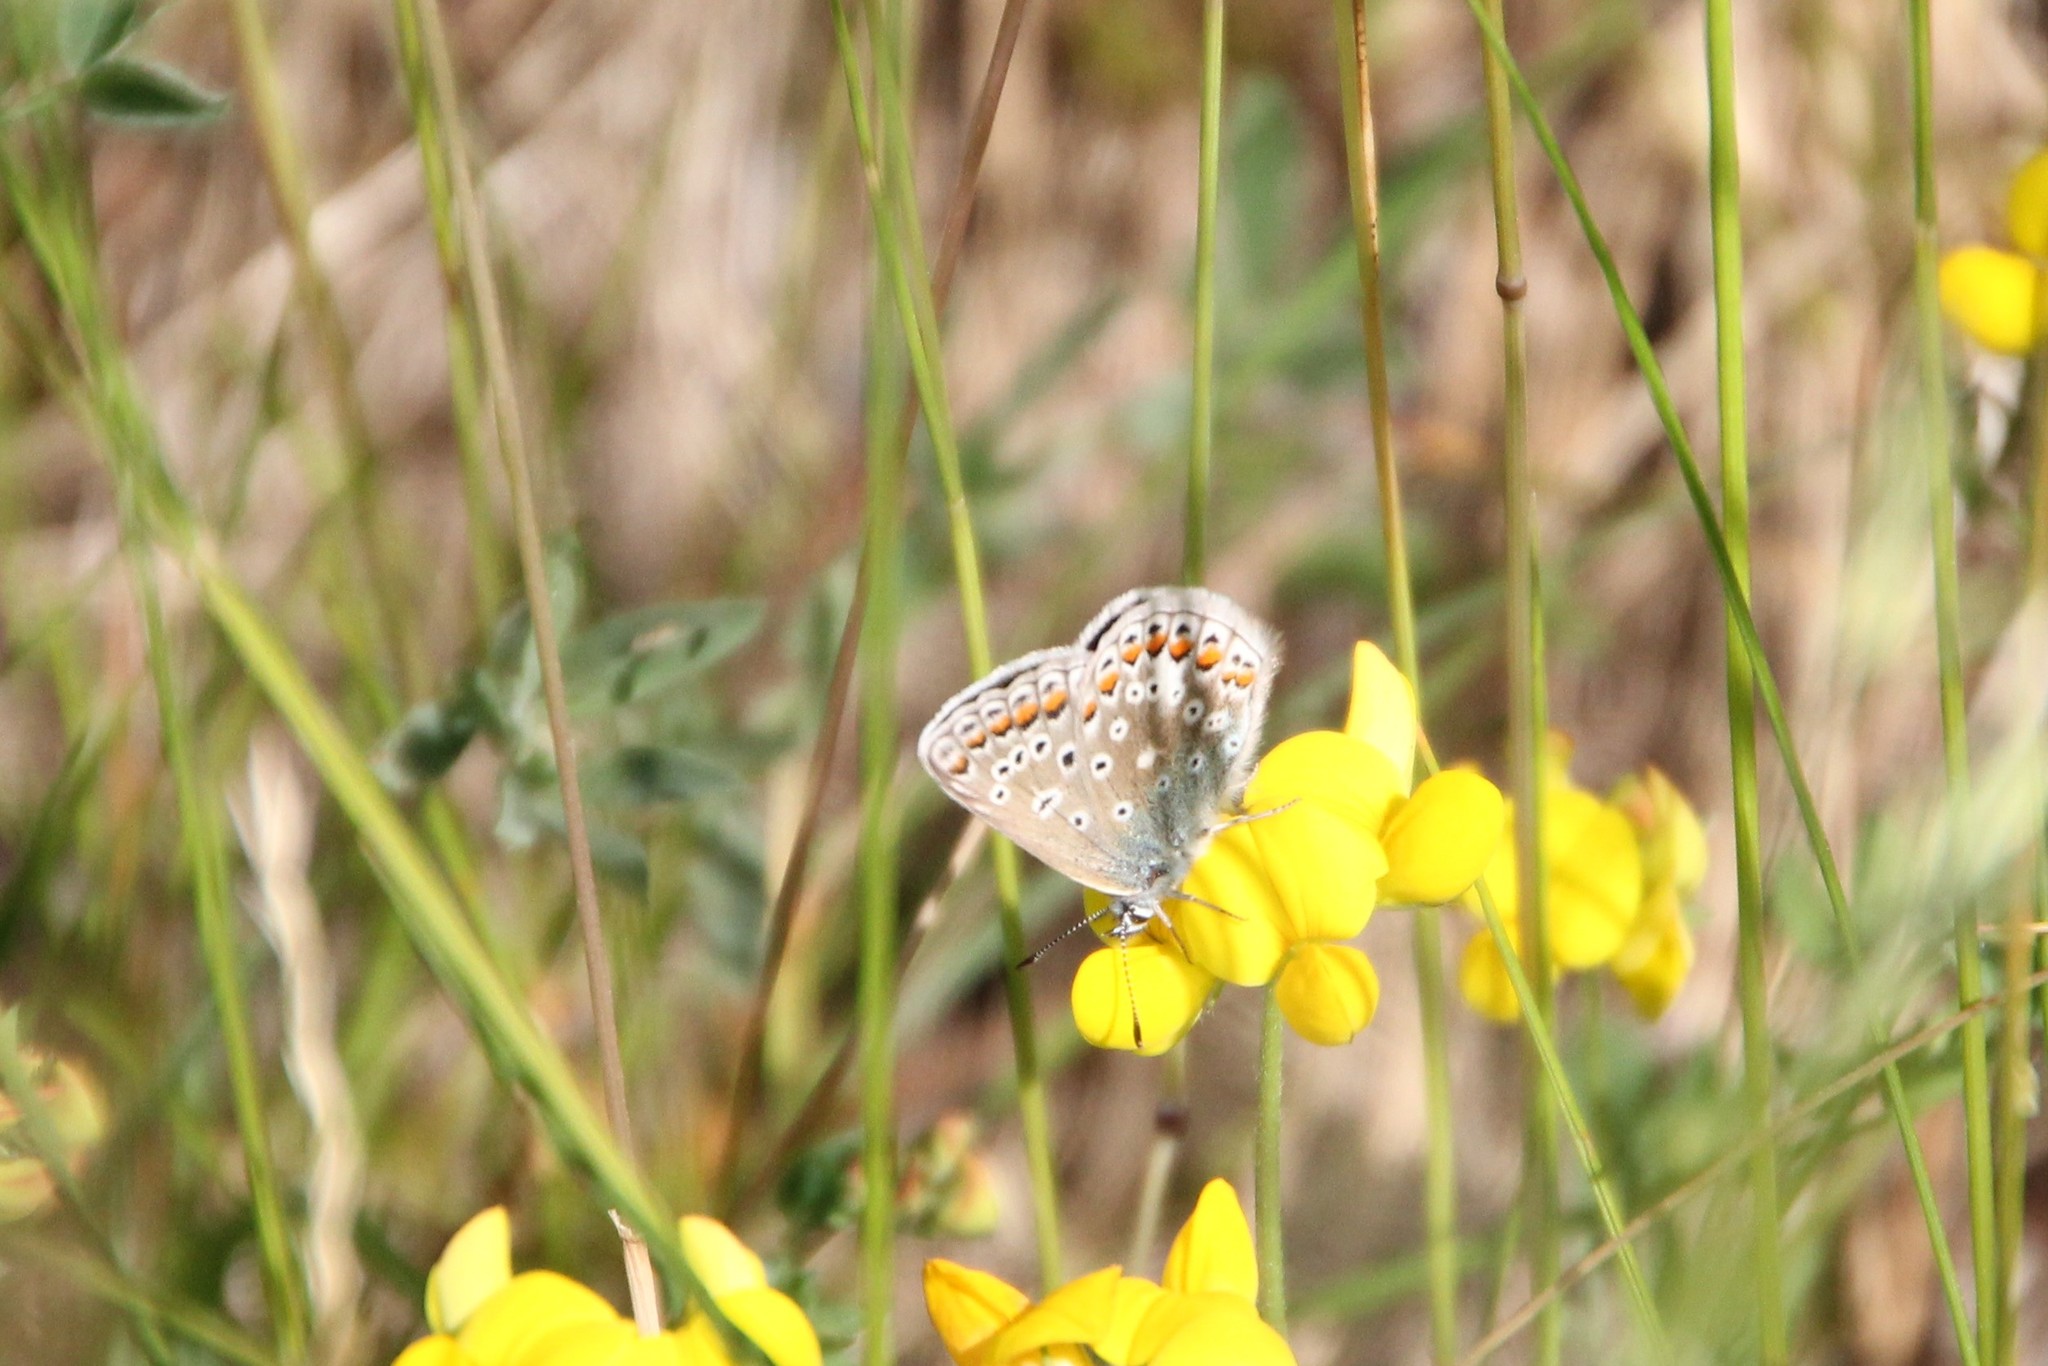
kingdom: Animalia
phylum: Arthropoda
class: Insecta
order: Lepidoptera
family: Lycaenidae
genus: Polyommatus
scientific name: Polyommatus icarus
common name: Common blue
